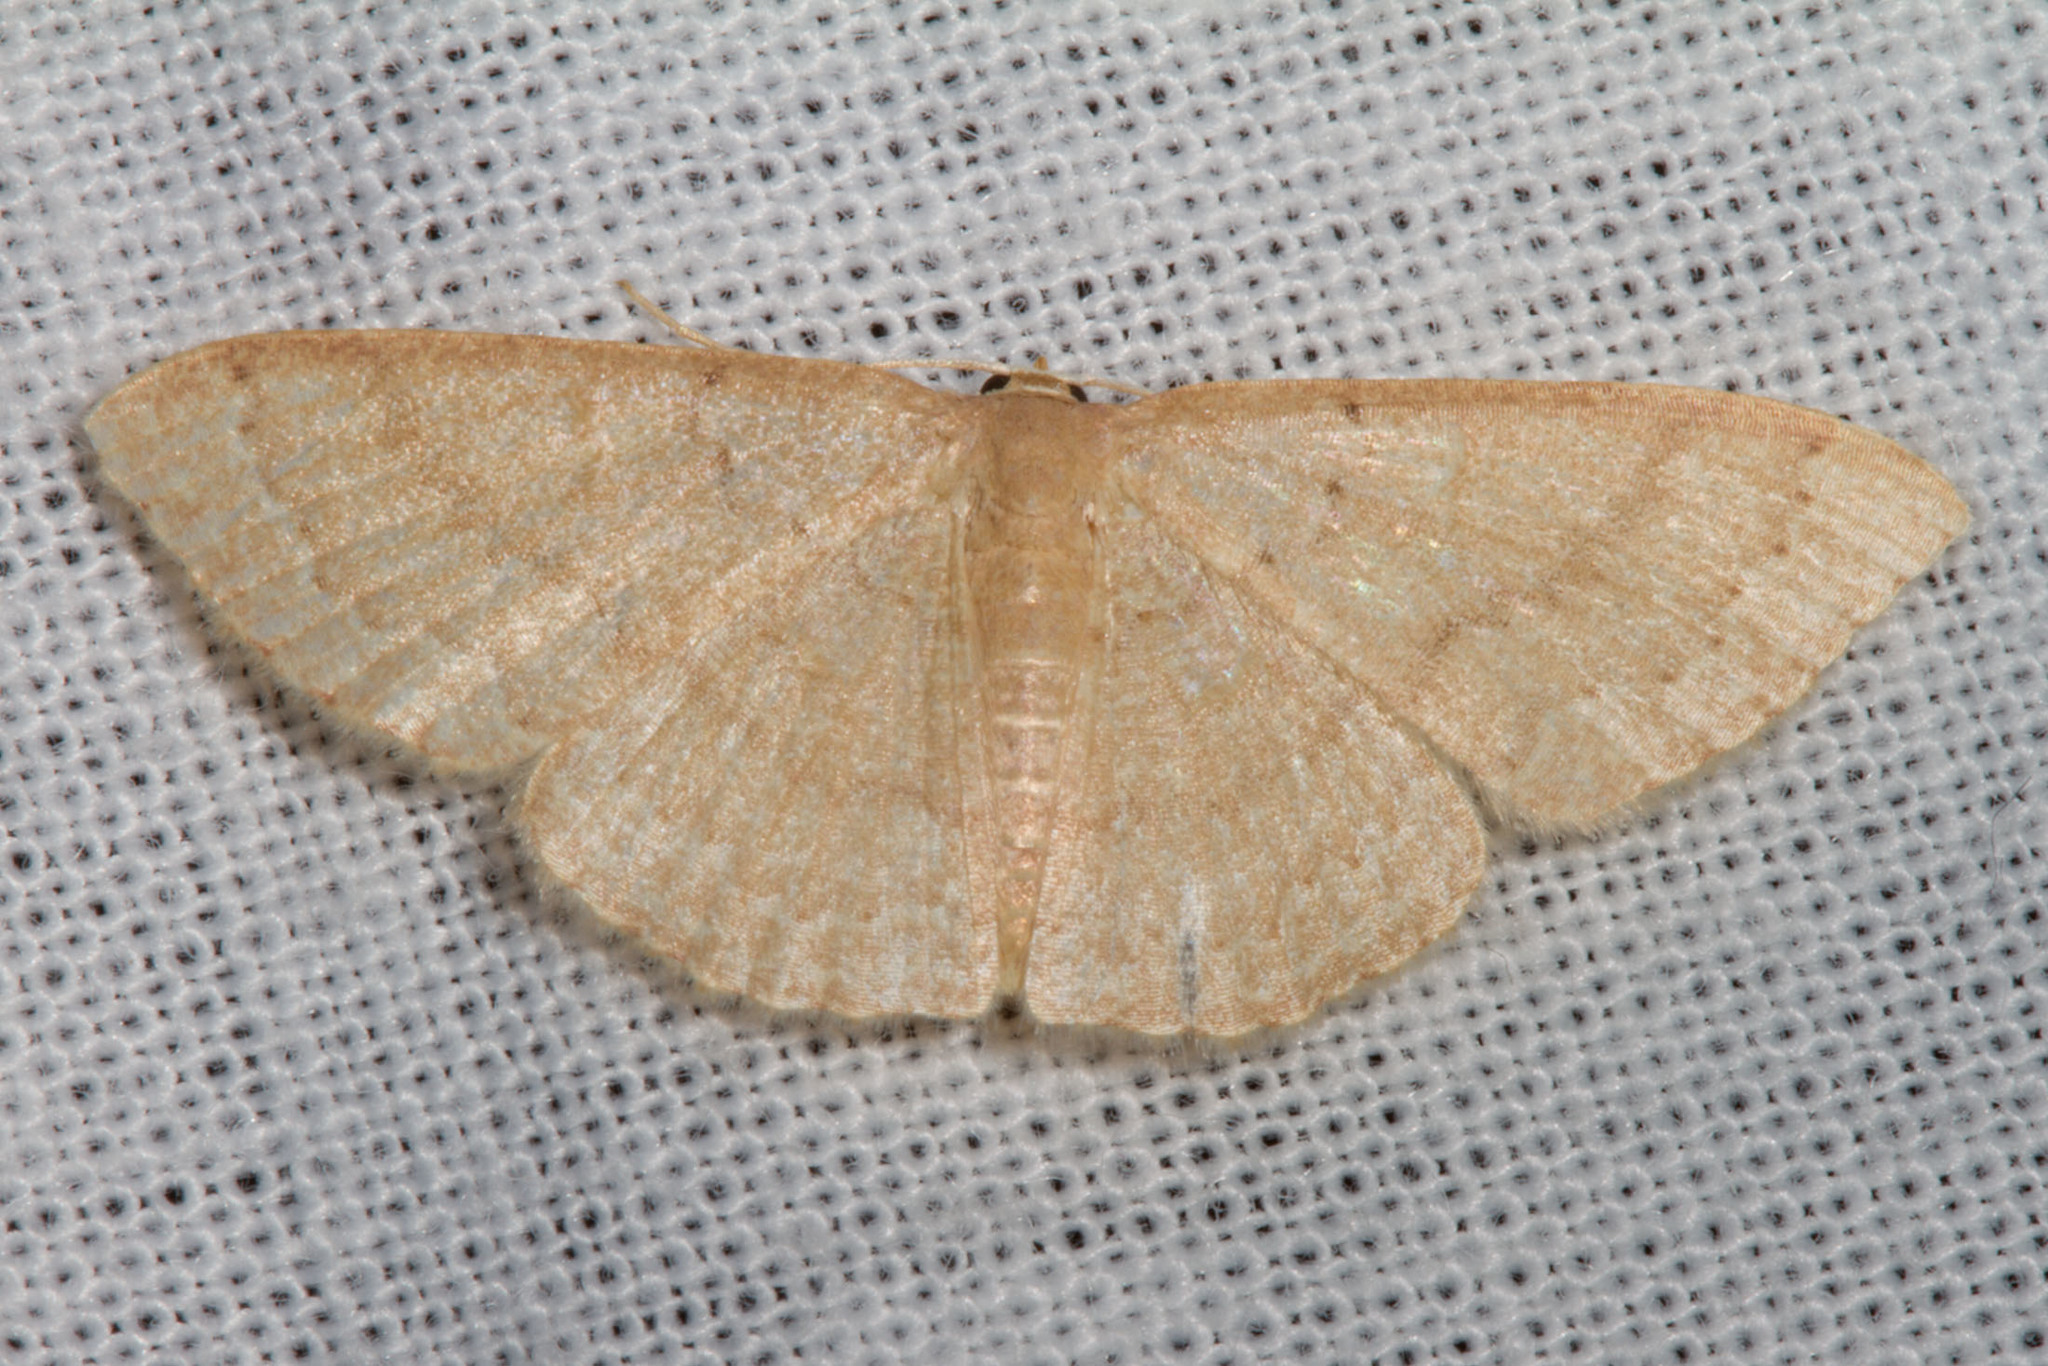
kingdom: Animalia
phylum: Arthropoda
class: Insecta
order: Lepidoptera
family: Geometridae
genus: Pleuroprucha
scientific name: Pleuroprucha insulsaria
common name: Common tan wave
